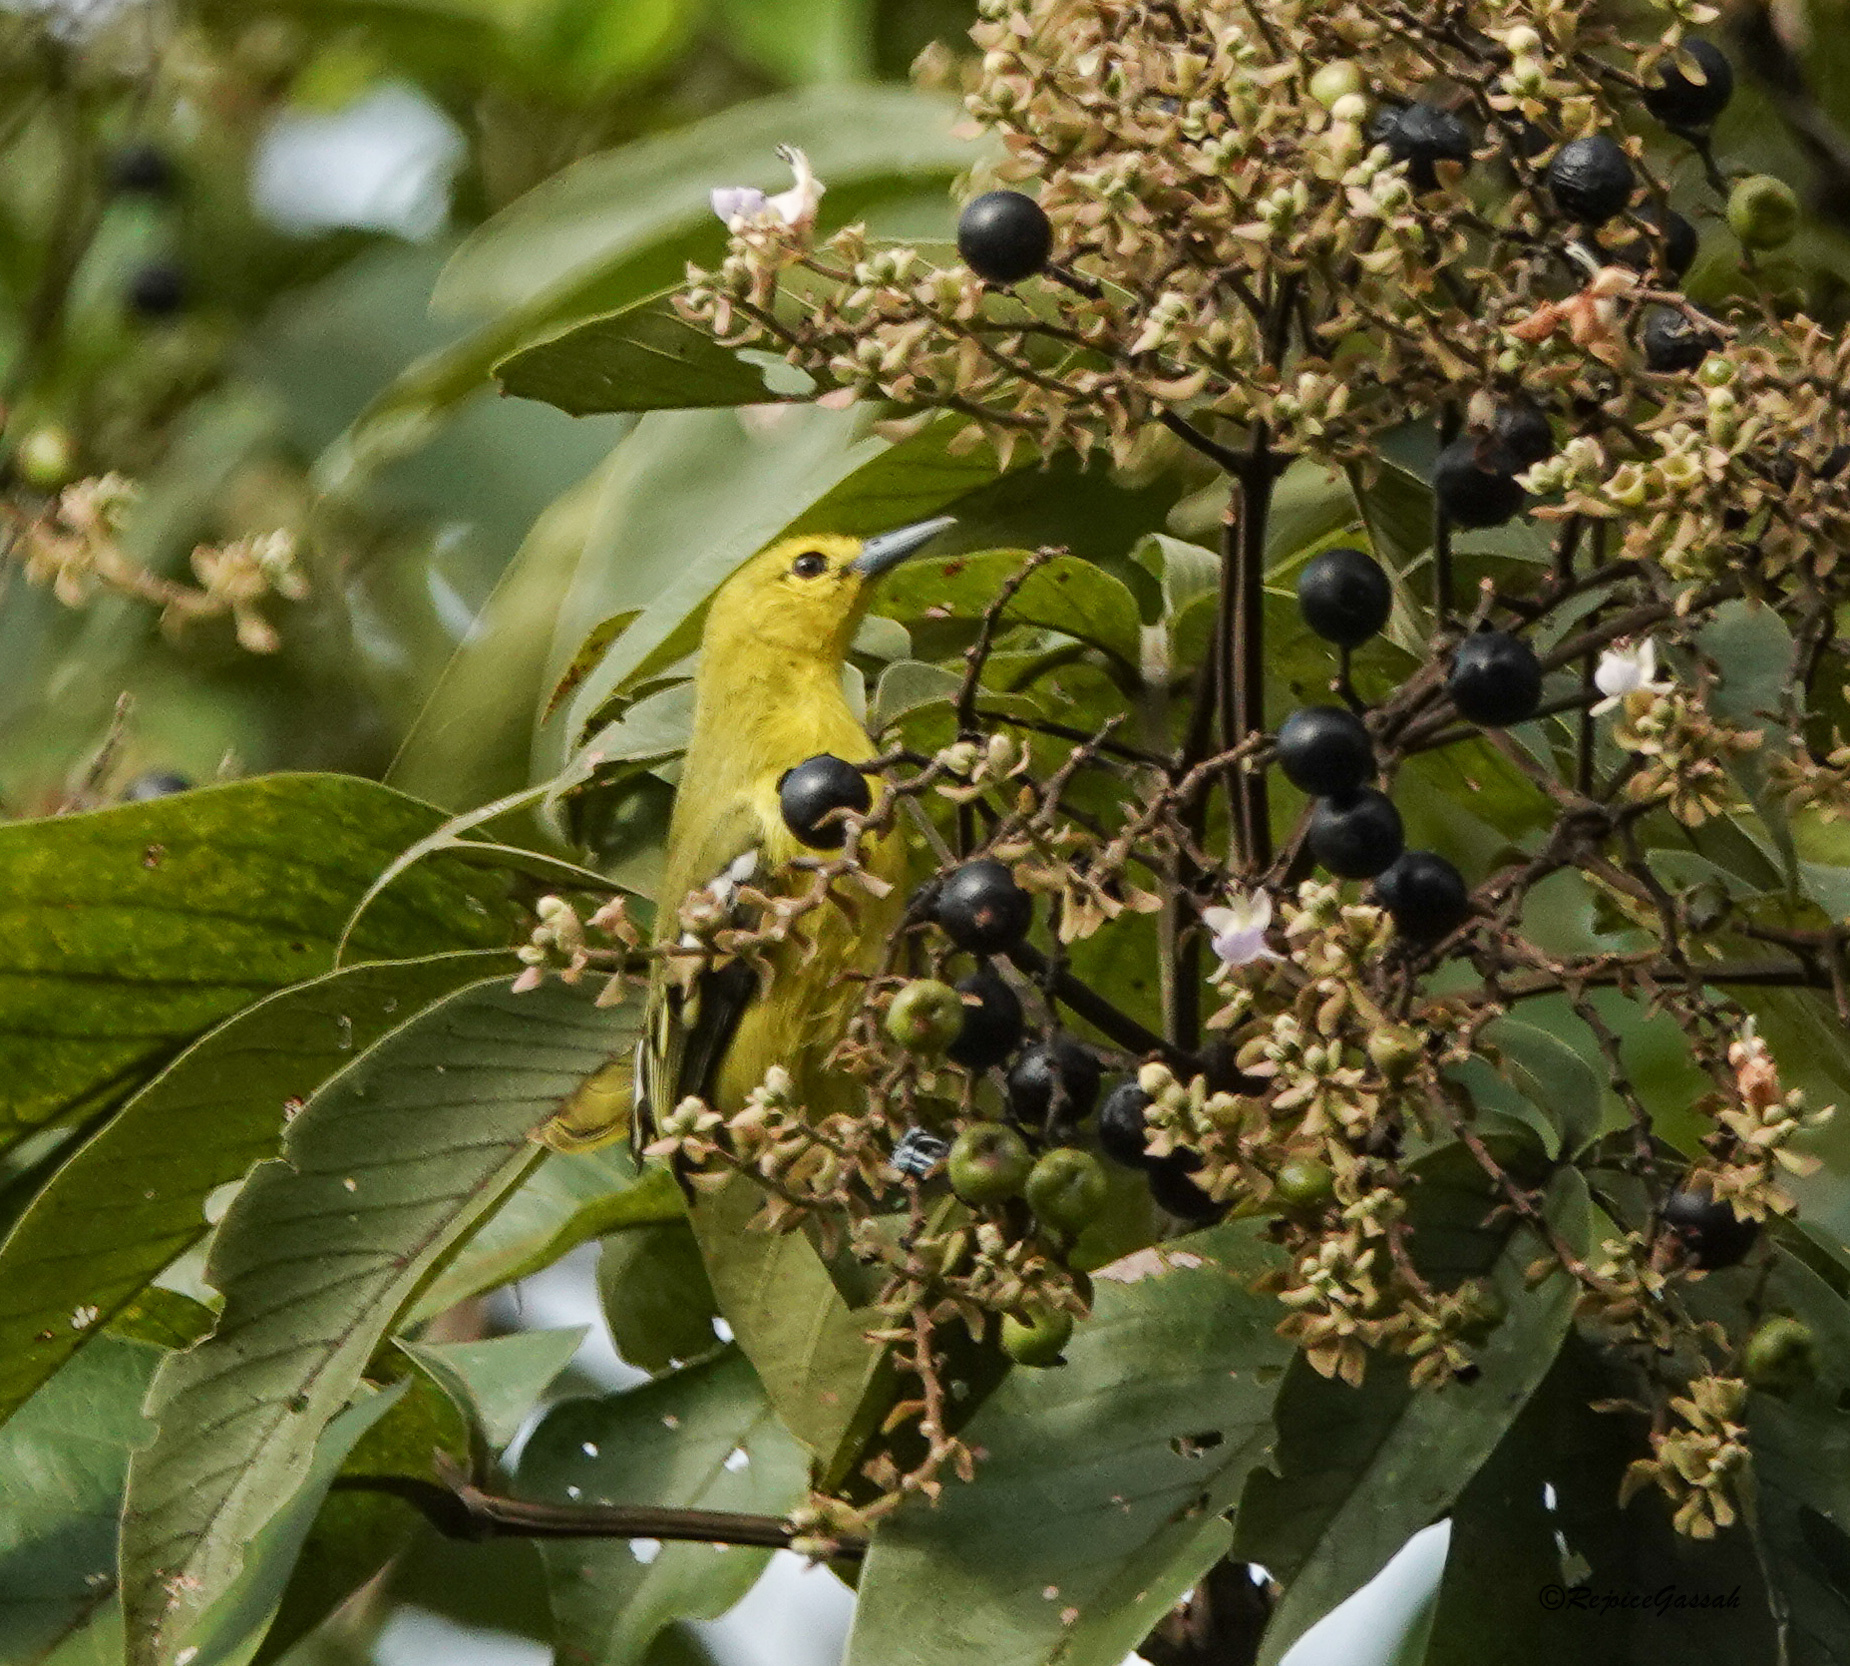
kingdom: Animalia
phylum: Chordata
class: Aves
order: Passeriformes
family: Aegithinidae
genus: Aegithina
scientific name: Aegithina tiphia
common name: Common iora
